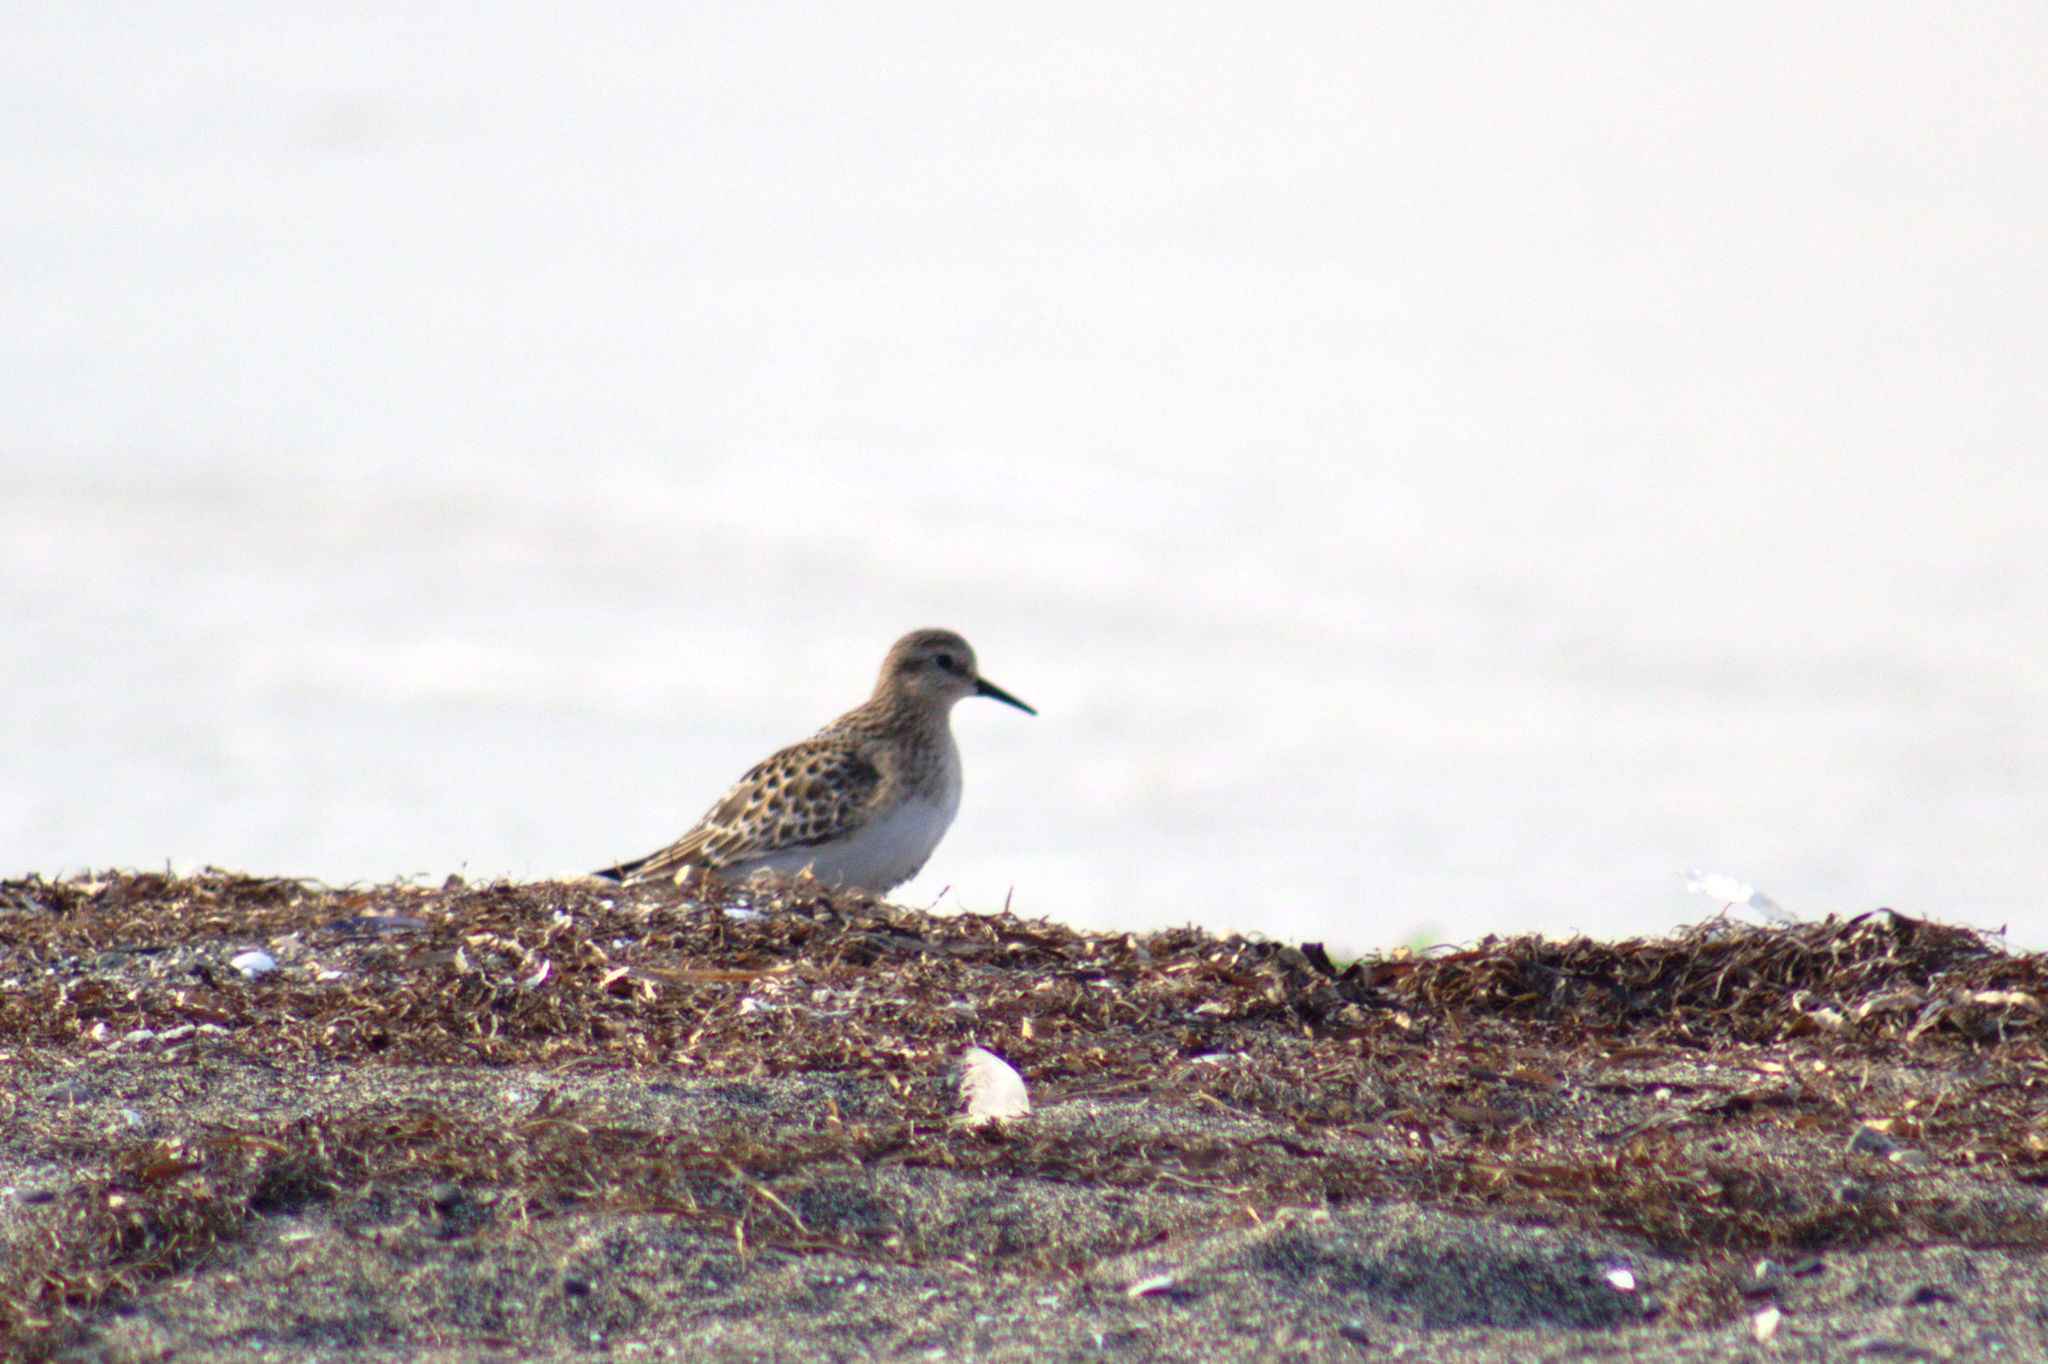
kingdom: Animalia
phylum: Chordata
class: Aves
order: Charadriiformes
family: Scolopacidae
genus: Calidris
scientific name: Calidris bairdii
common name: Baird's sandpiper
